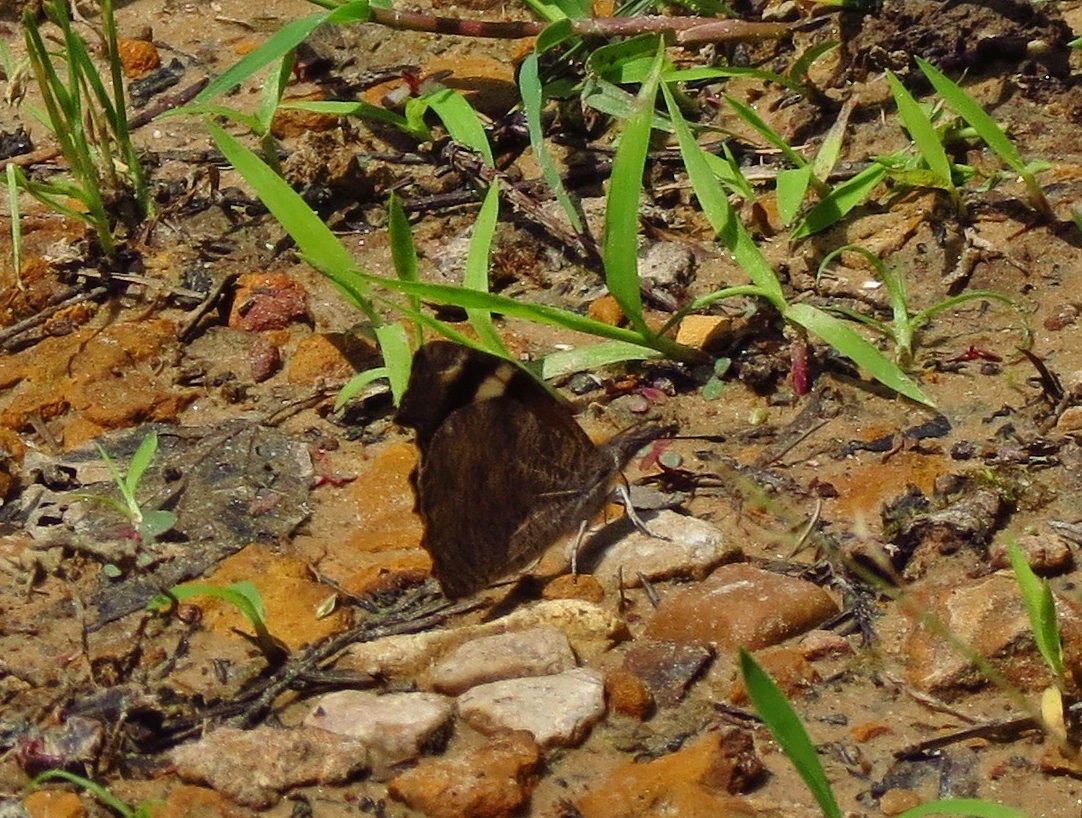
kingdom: Animalia
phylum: Arthropoda
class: Insecta
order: Lepidoptera
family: Nymphalidae
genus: Libytheana
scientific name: Libytheana carinenta
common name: American snout
